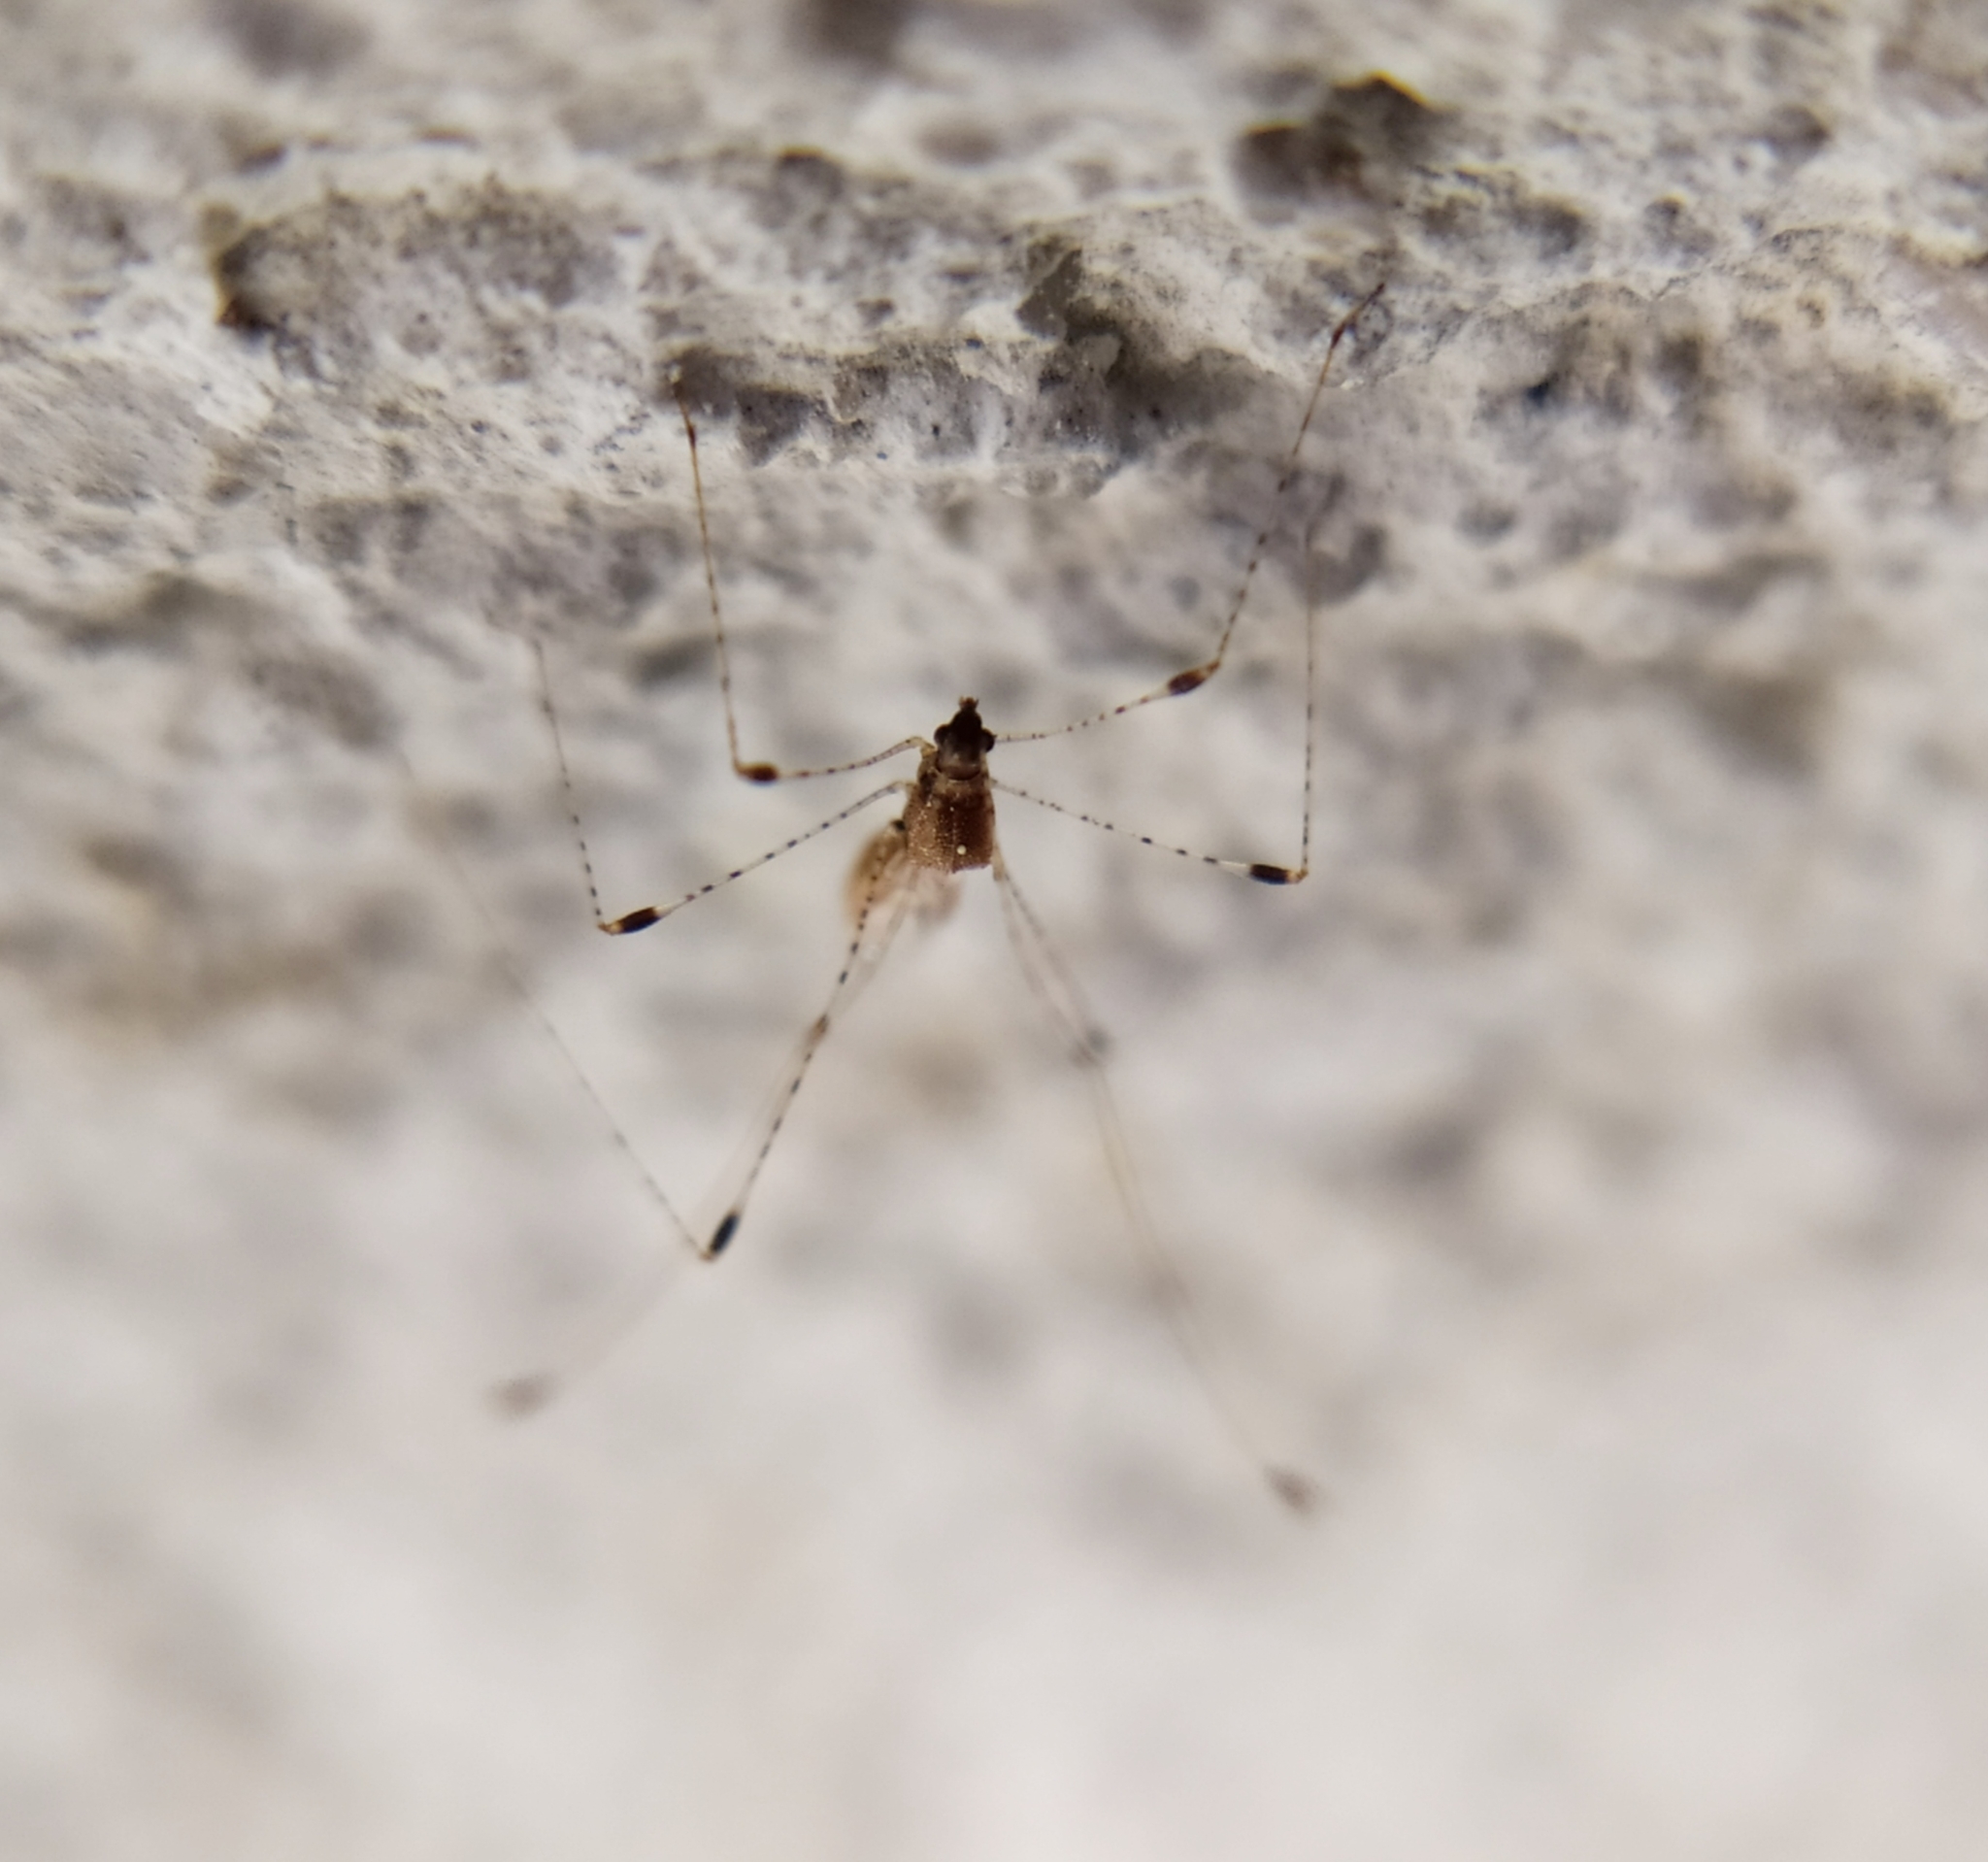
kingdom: Animalia
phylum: Arthropoda
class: Insecta
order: Hemiptera
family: Berytidae
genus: Metacanthus
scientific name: Metacanthus annulosus
